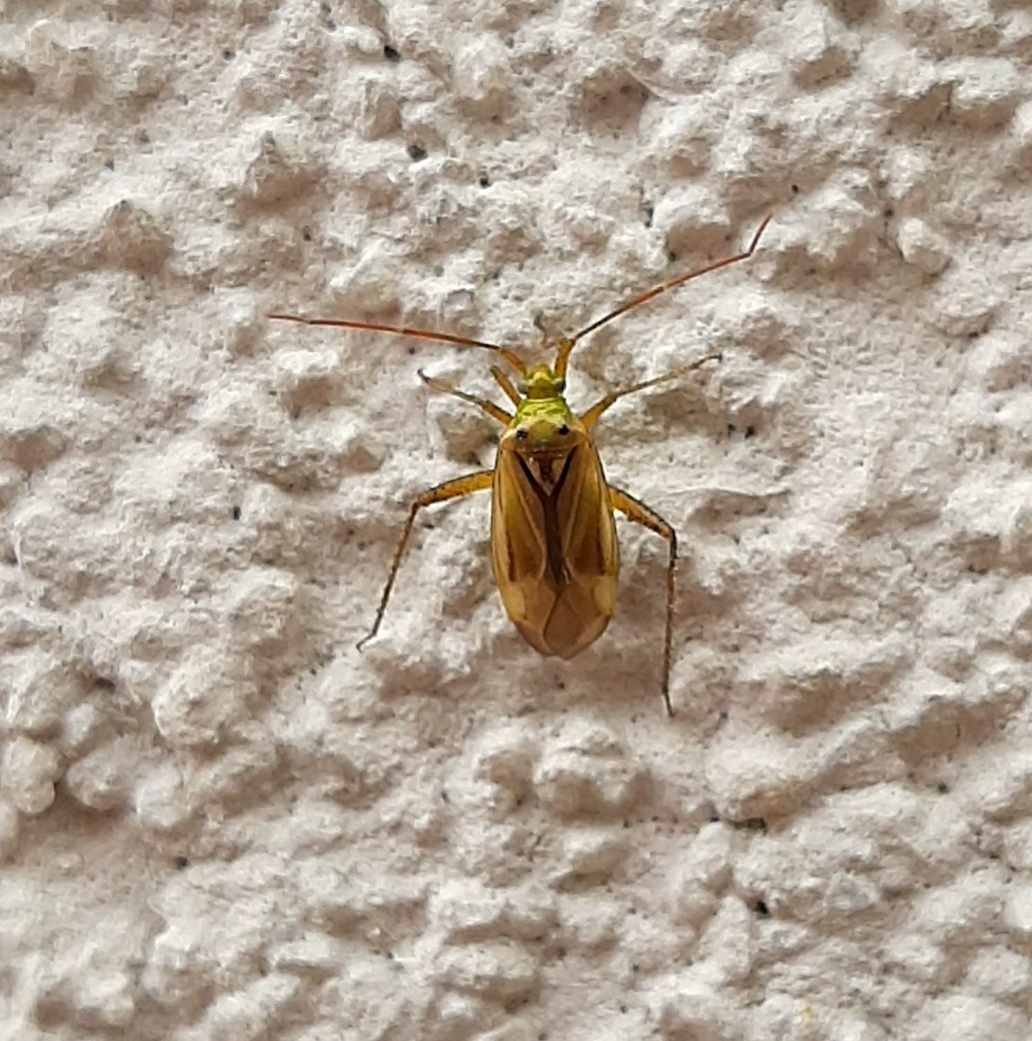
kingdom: Animalia
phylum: Arthropoda
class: Insecta
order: Hemiptera
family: Miridae
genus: Adelphocoris
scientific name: Adelphocoris lineolatus
